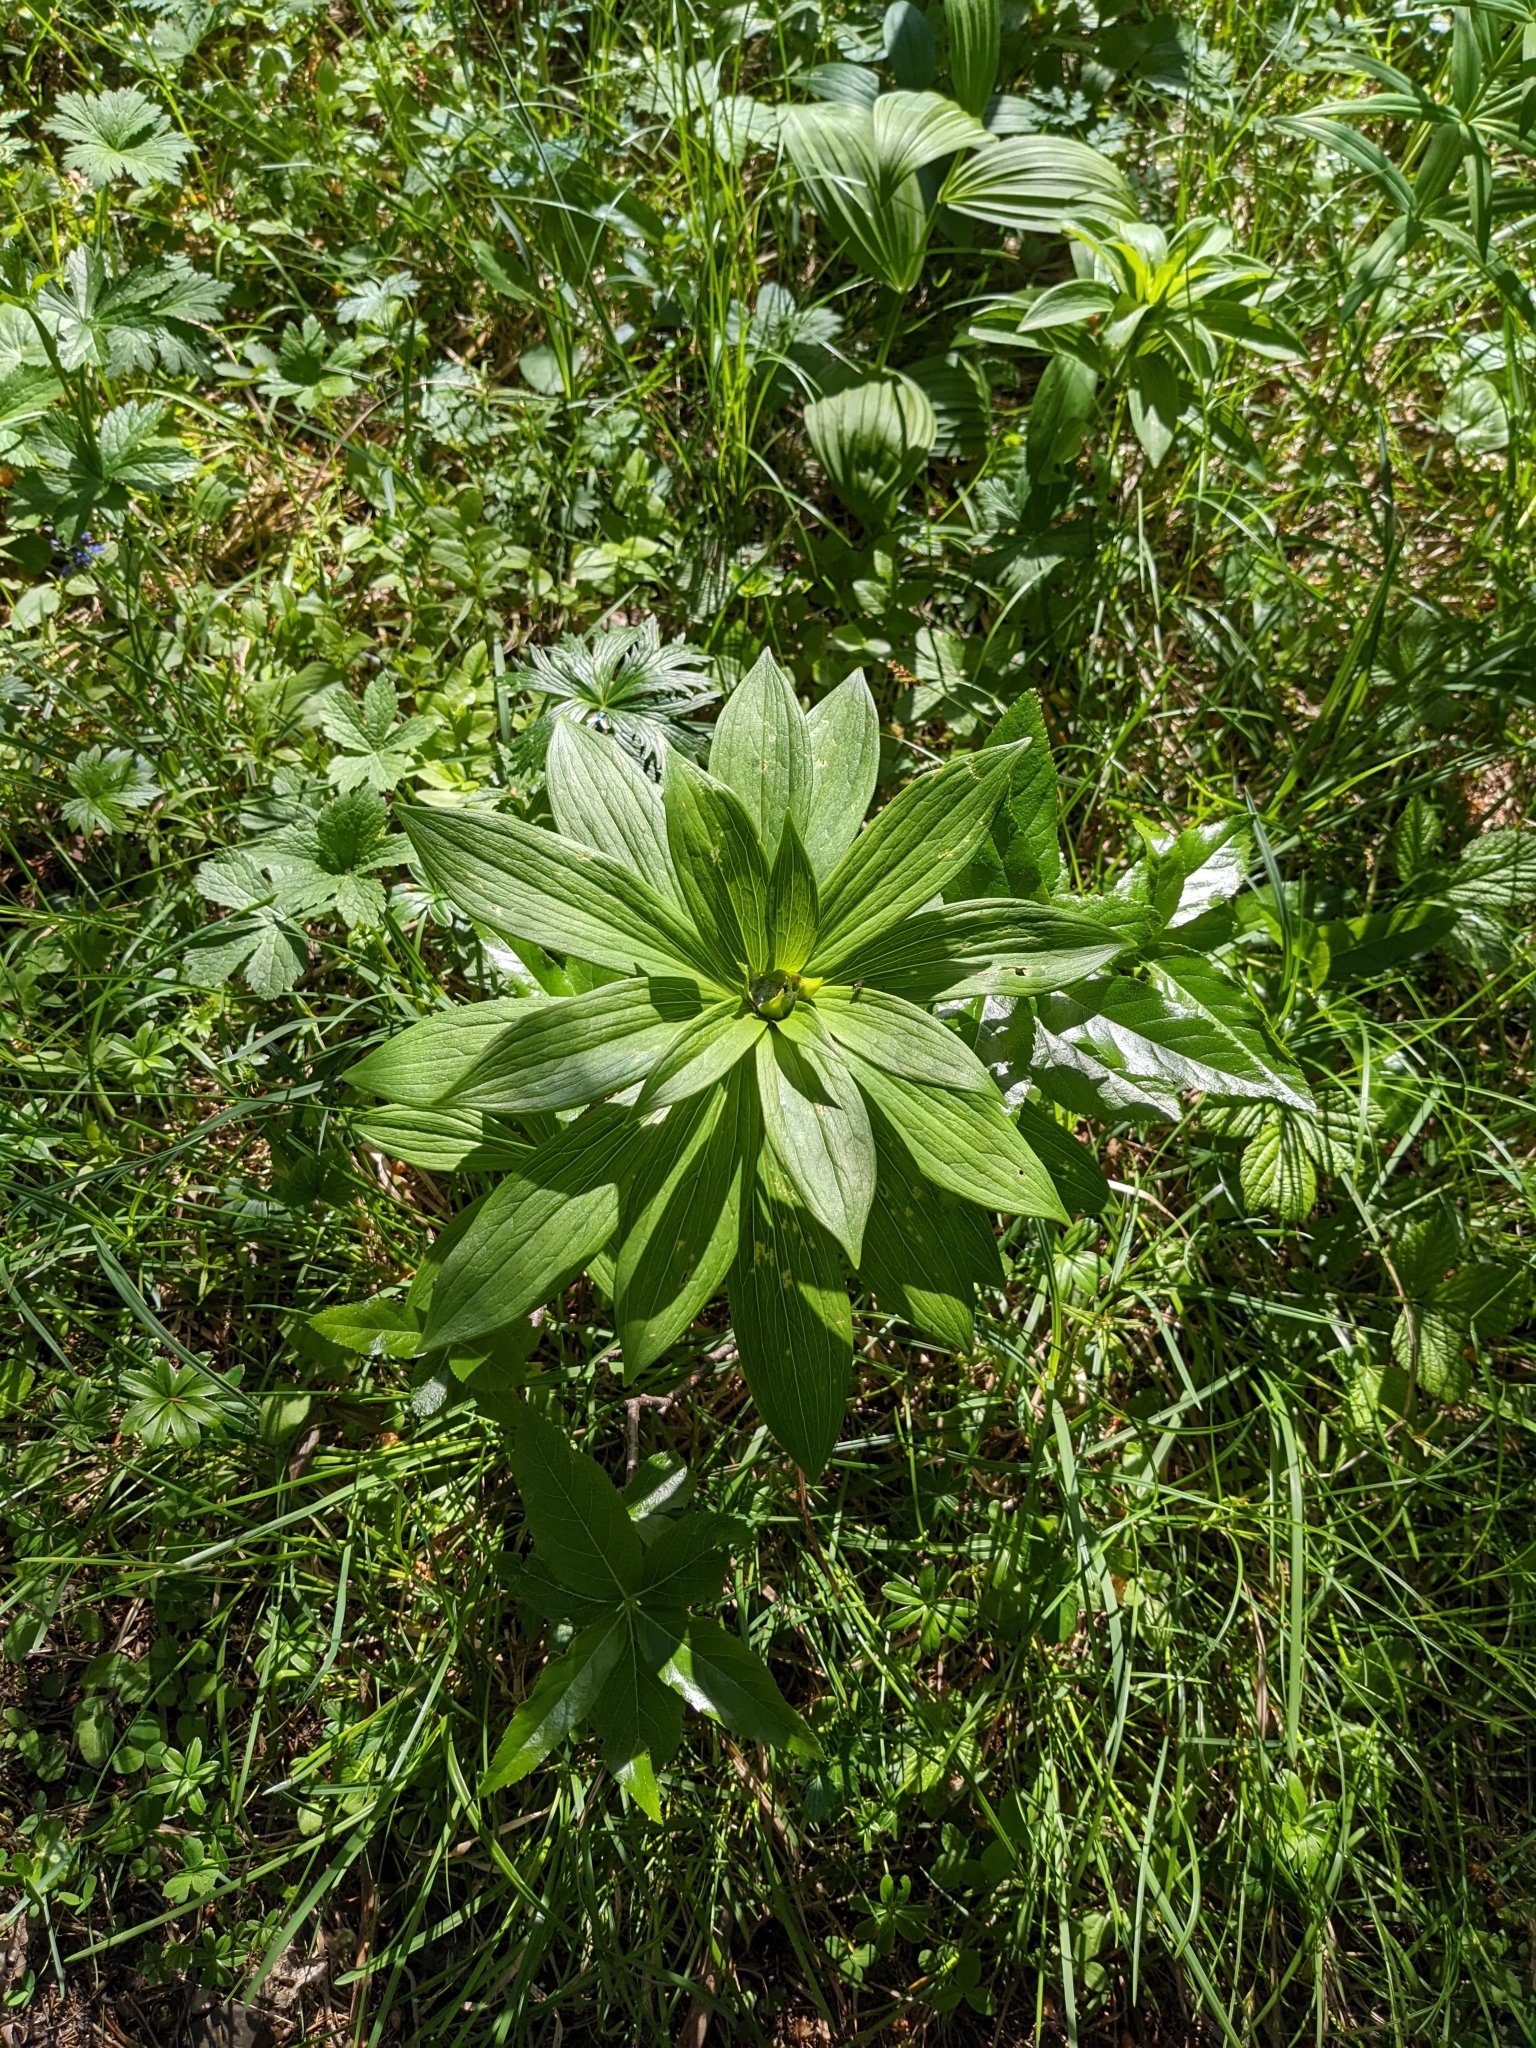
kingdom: Plantae
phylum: Tracheophyta
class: Liliopsida
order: Liliales
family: Liliaceae
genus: Lilium
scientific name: Lilium martagon
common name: Martagon lily
